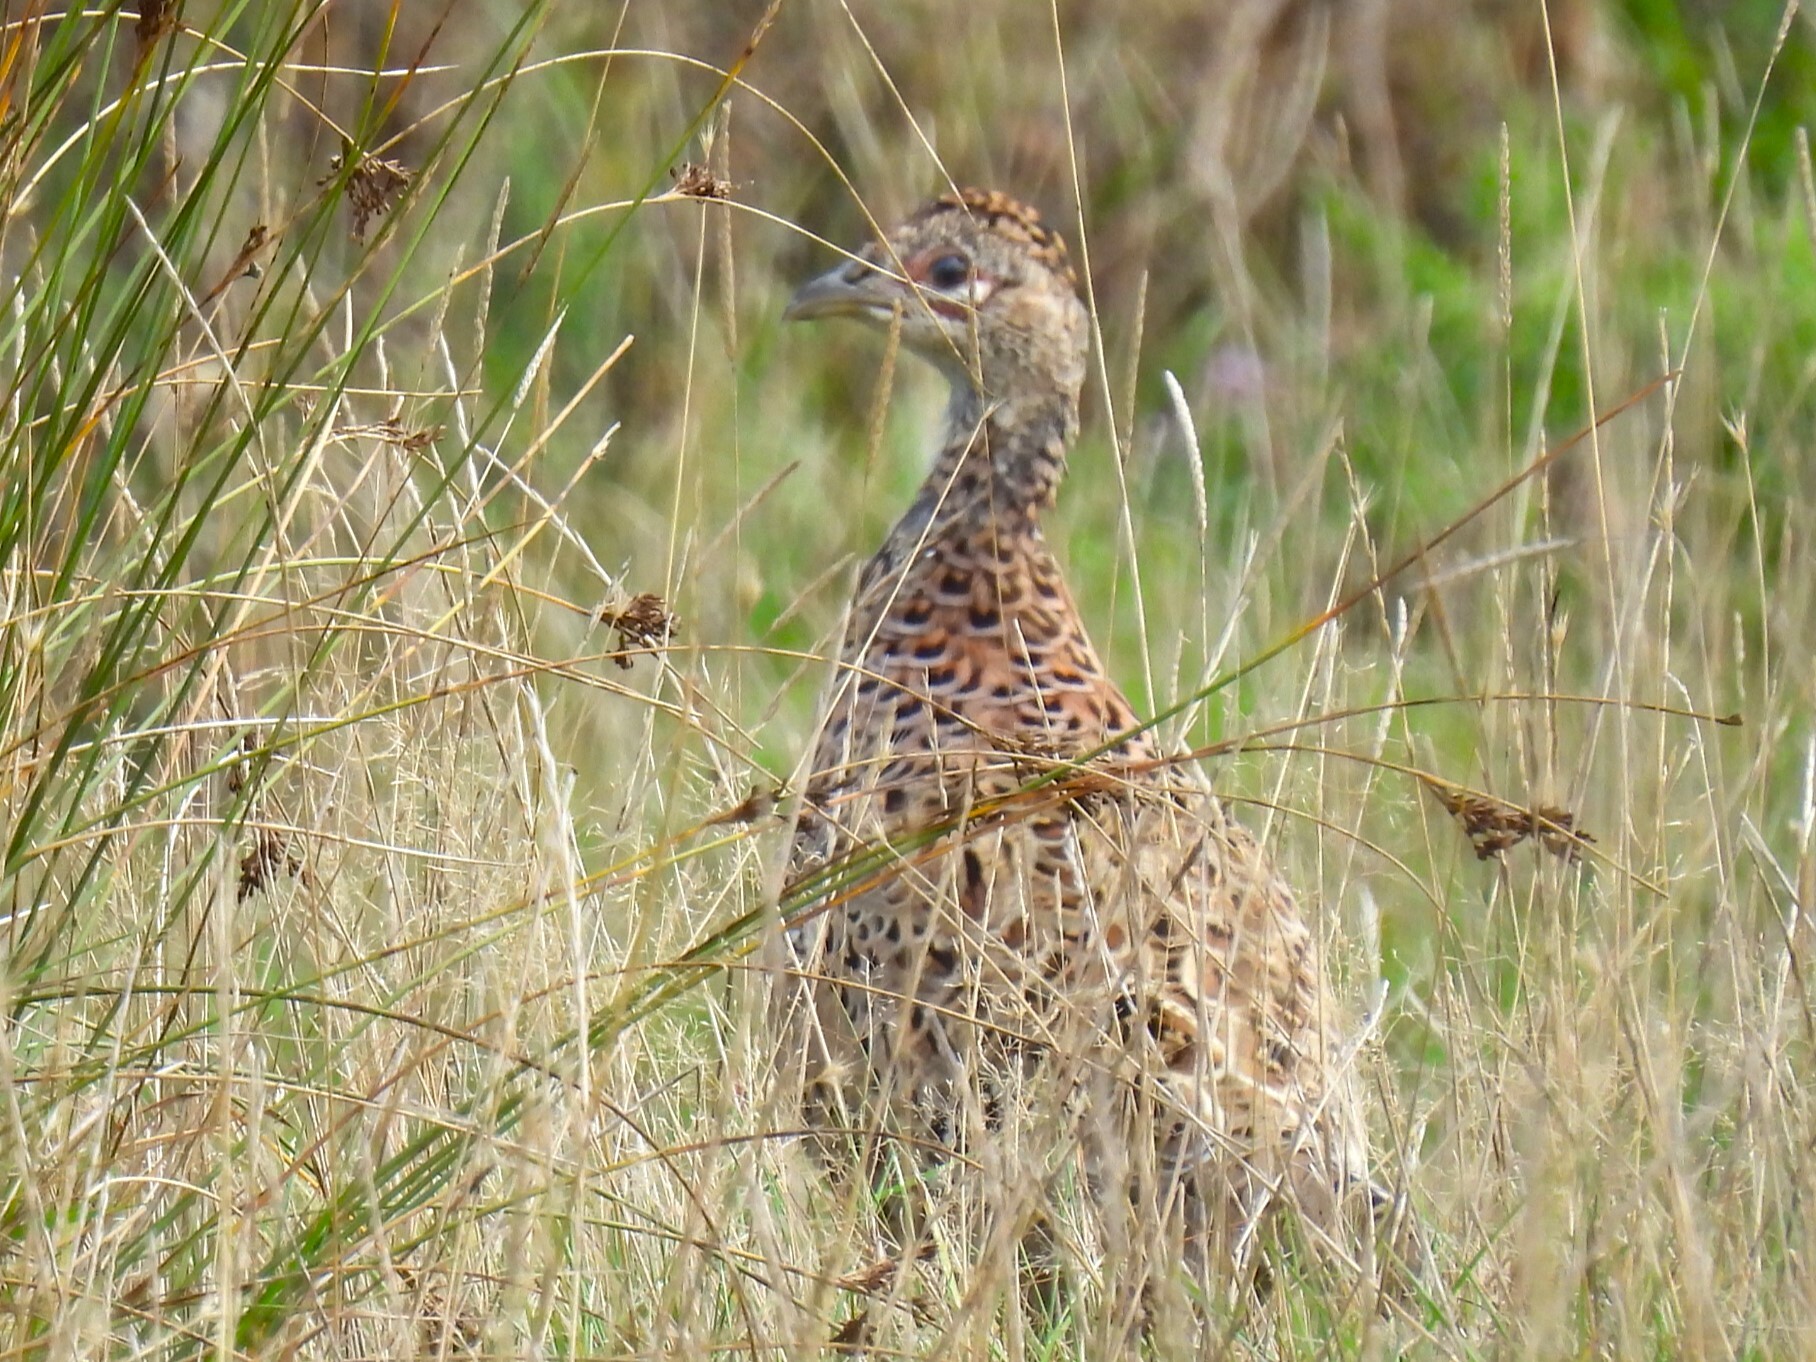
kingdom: Animalia
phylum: Chordata
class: Aves
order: Galliformes
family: Phasianidae
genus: Phasianus
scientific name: Phasianus colchicus
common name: Common pheasant
